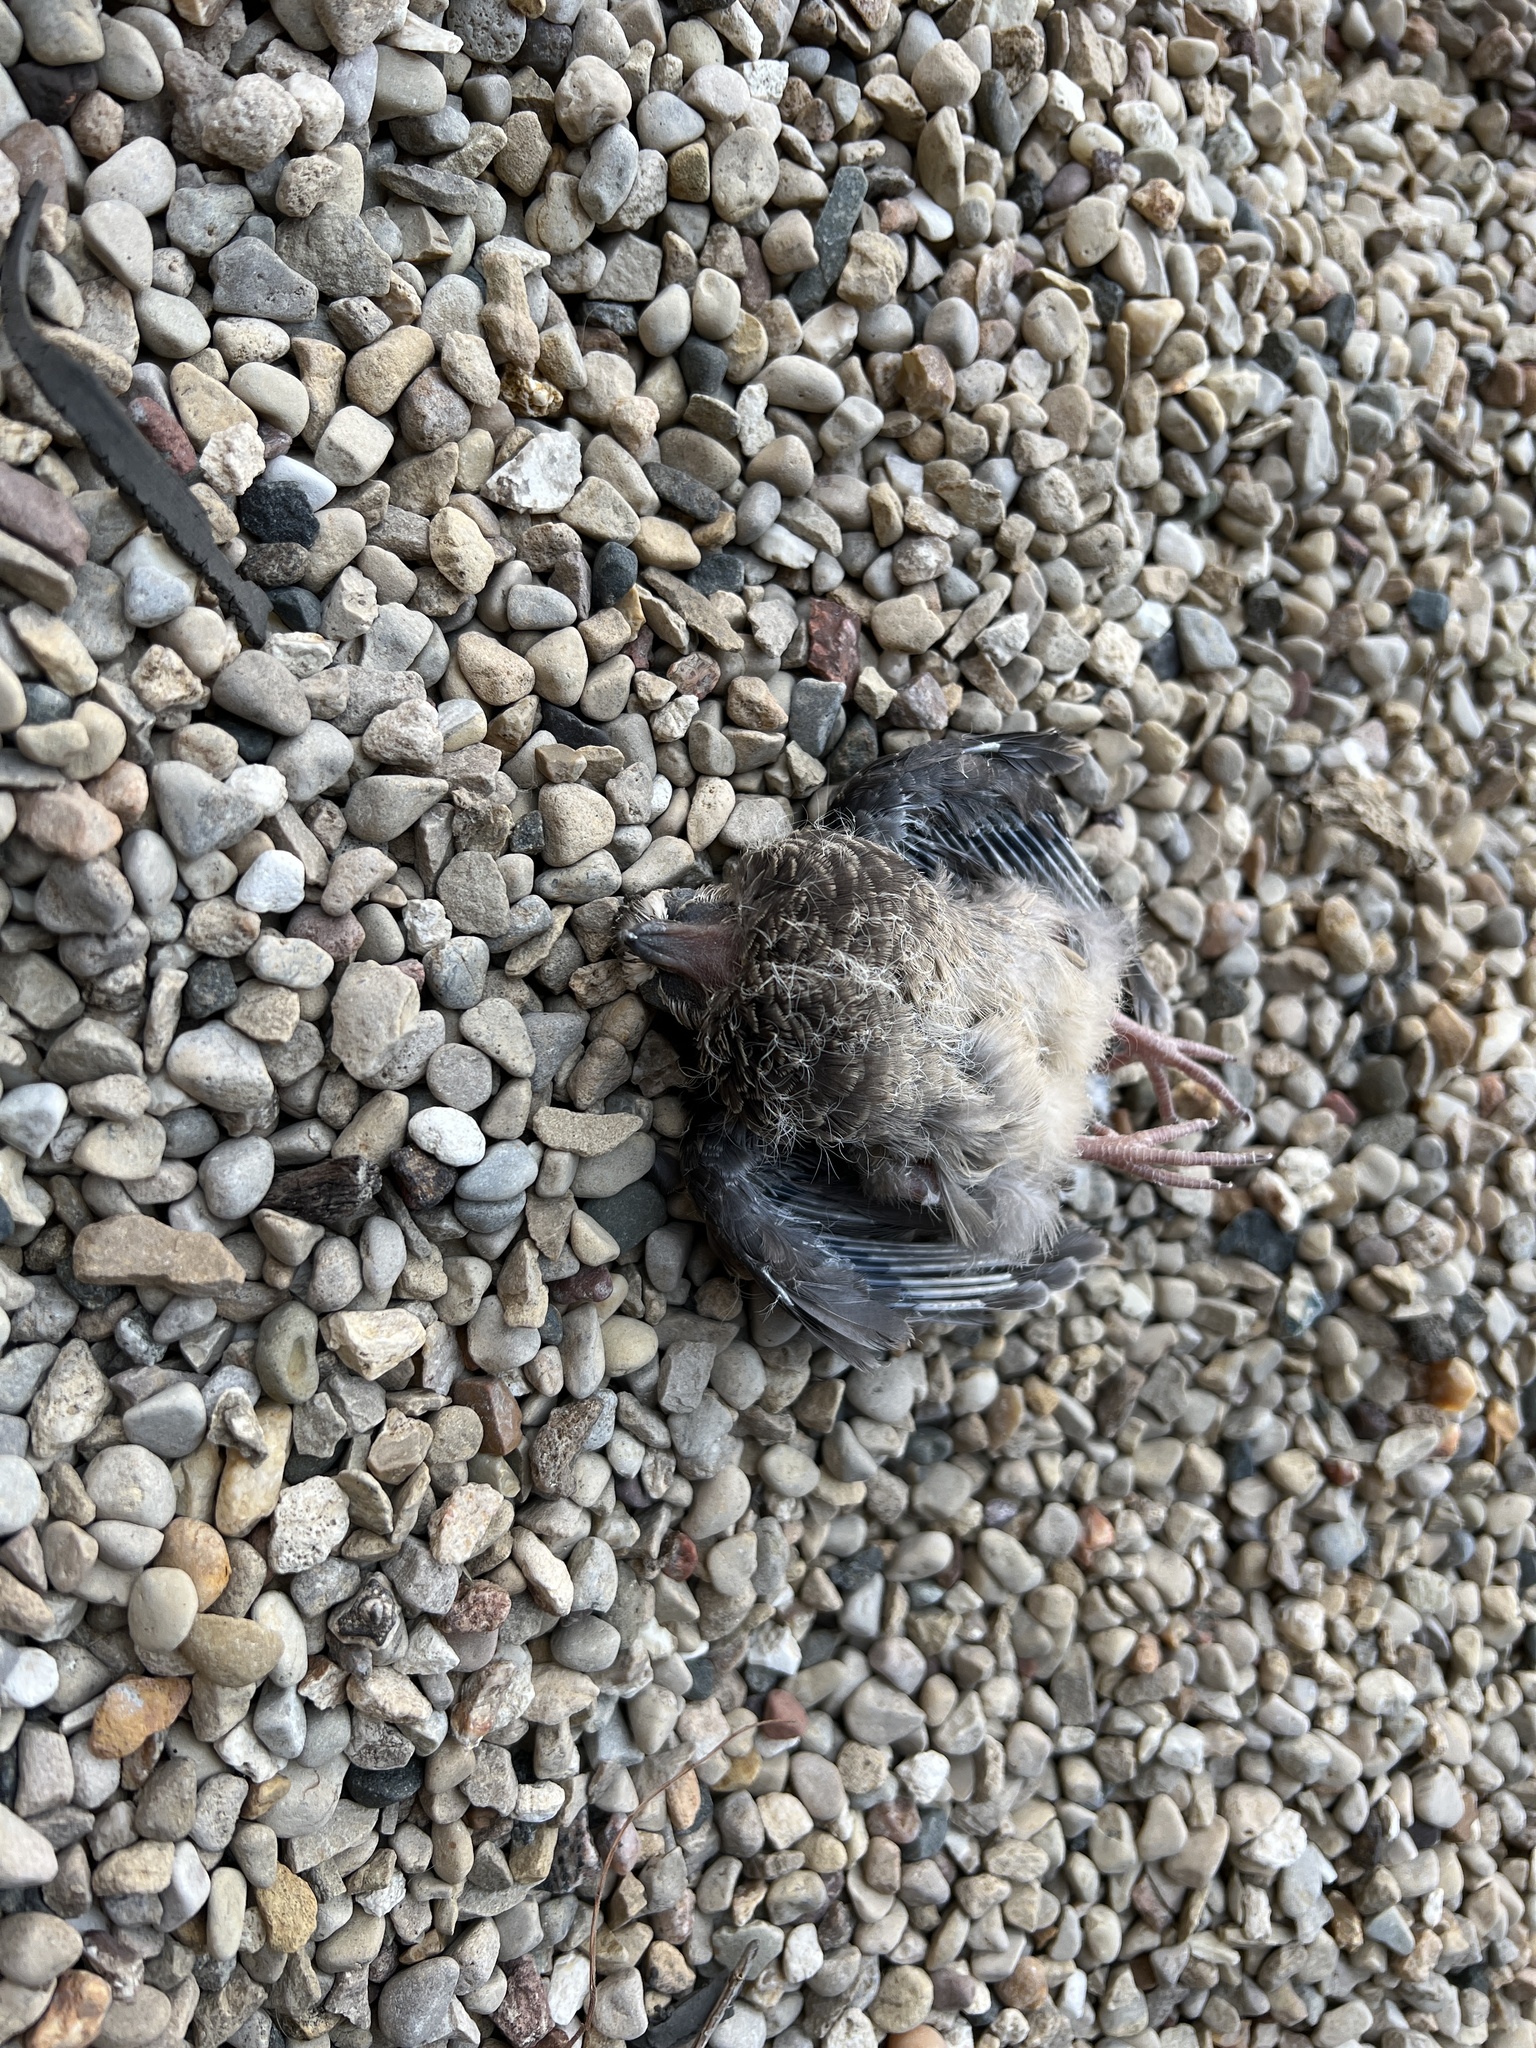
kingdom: Animalia
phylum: Chordata
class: Aves
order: Columbiformes
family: Columbidae
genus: Zenaida
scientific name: Zenaida macroura
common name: Mourning dove
